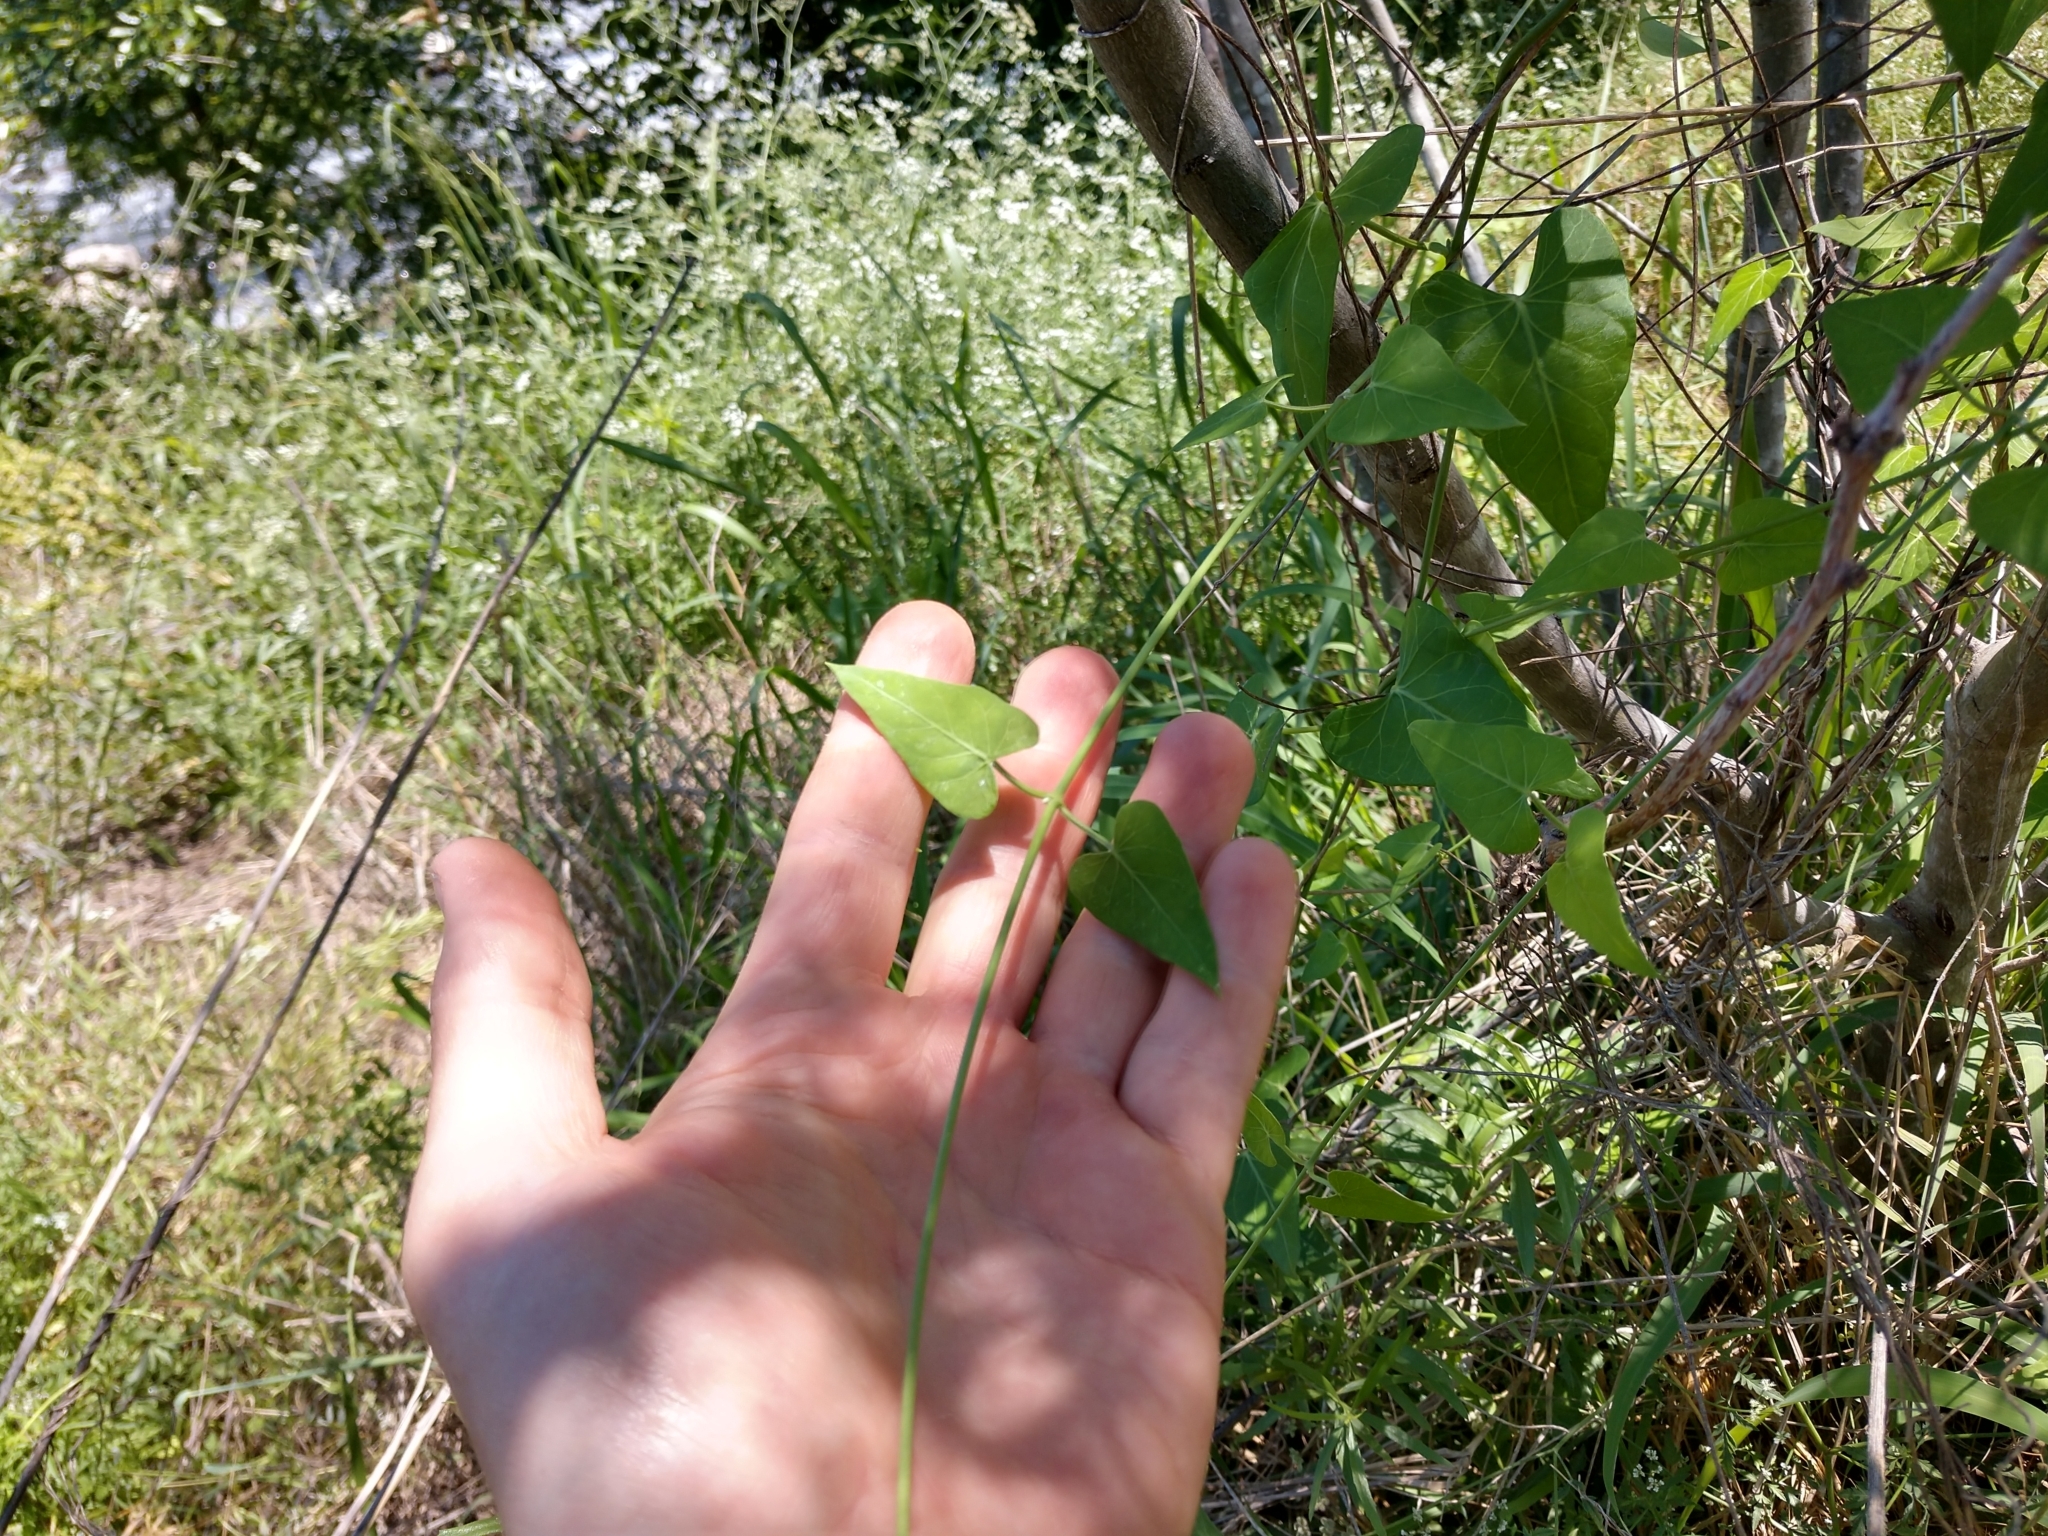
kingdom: Plantae
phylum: Tracheophyta
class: Magnoliopsida
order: Gentianales
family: Apocynaceae
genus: Funastrum
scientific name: Funastrum cynanchoides
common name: Climbing-milkweed
